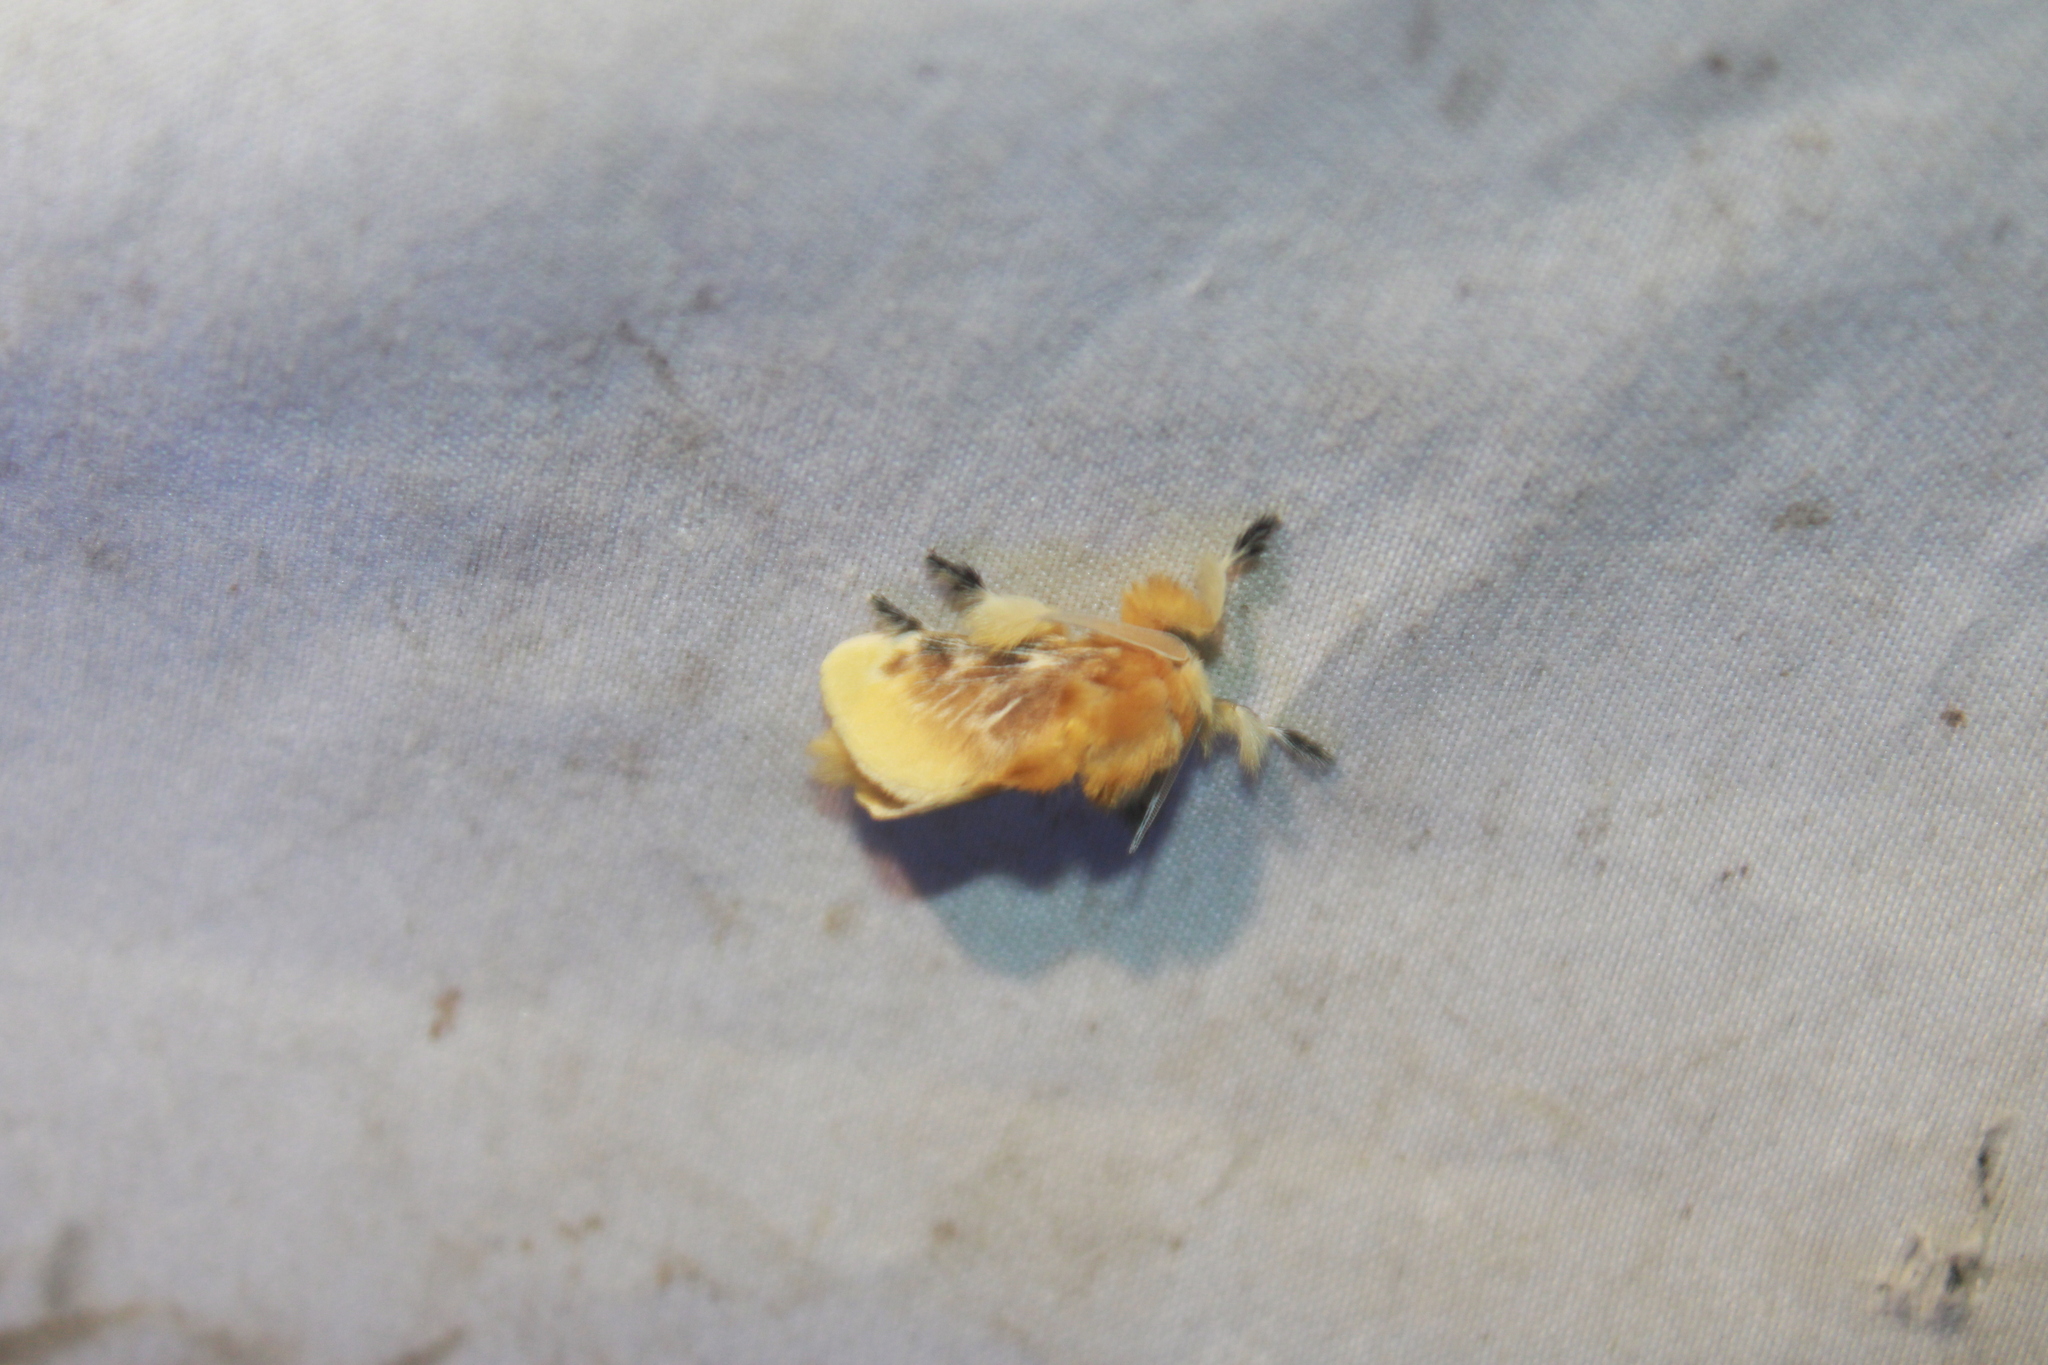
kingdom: Animalia
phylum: Arthropoda
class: Insecta
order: Lepidoptera
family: Megalopygidae
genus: Megalopyge
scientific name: Megalopyge opercularis
